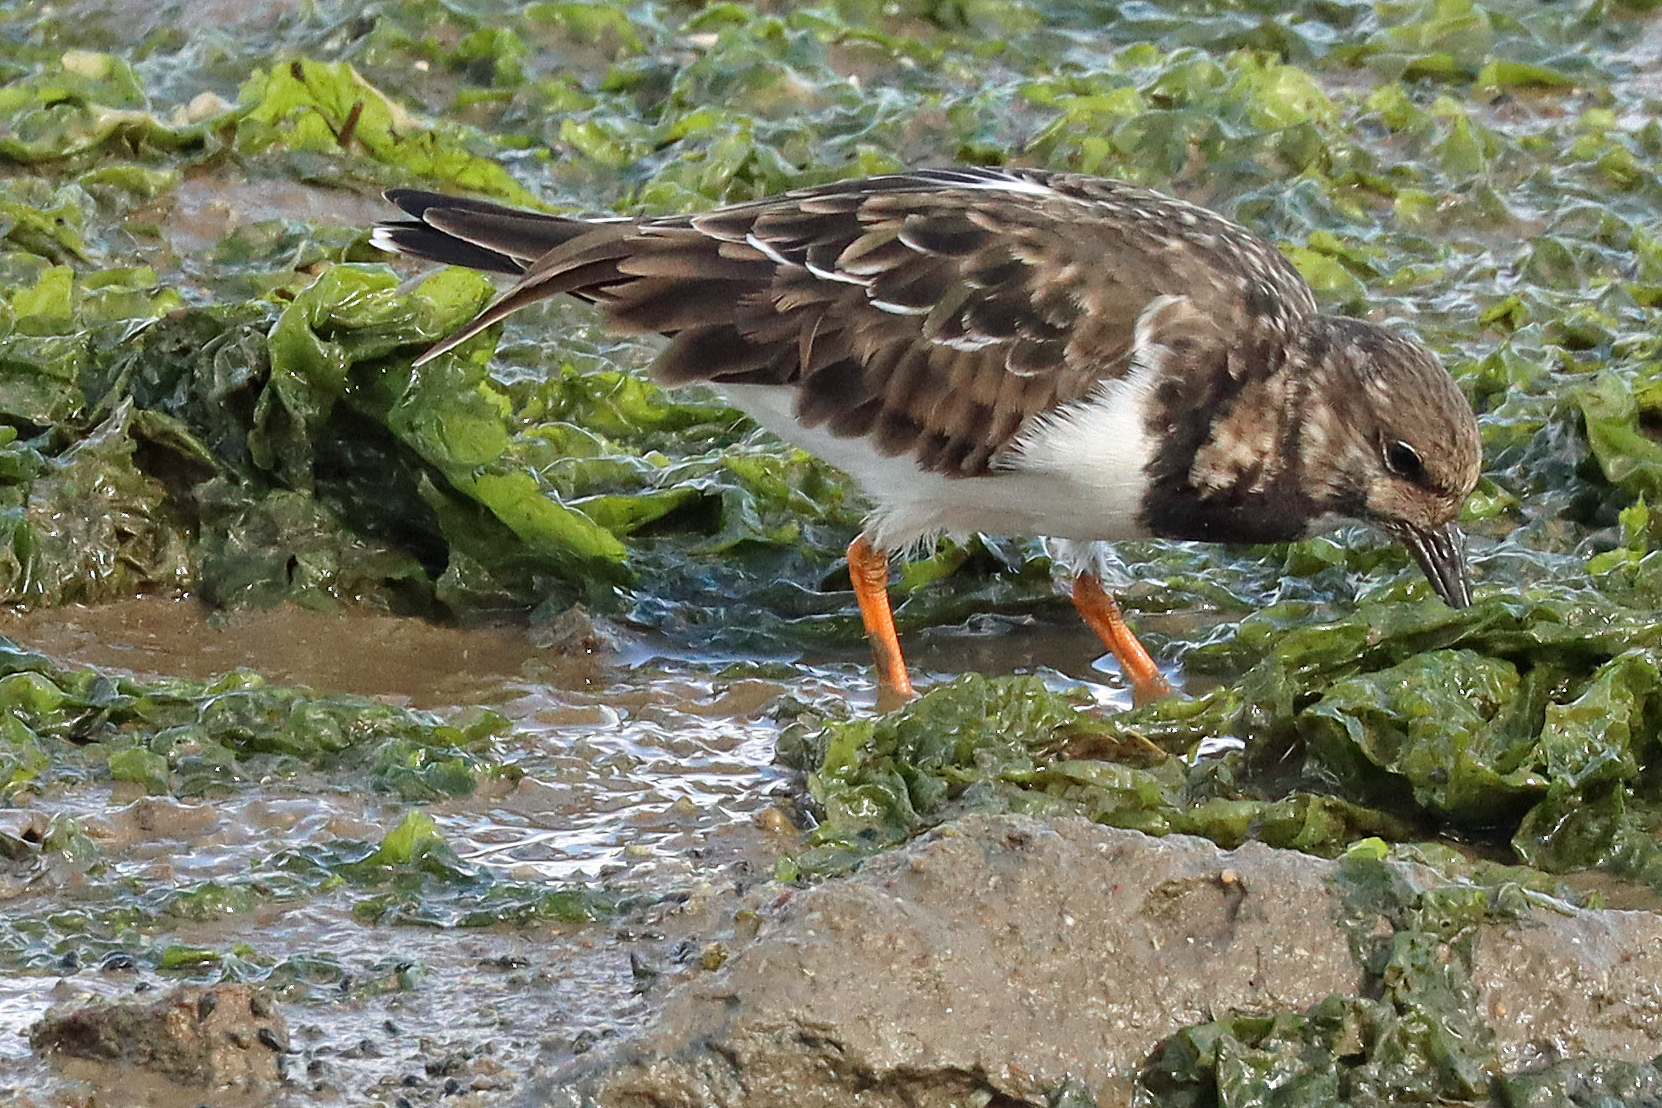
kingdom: Animalia
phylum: Chordata
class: Aves
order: Charadriiformes
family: Scolopacidae
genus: Arenaria
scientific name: Arenaria interpres
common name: Ruddy turnstone
